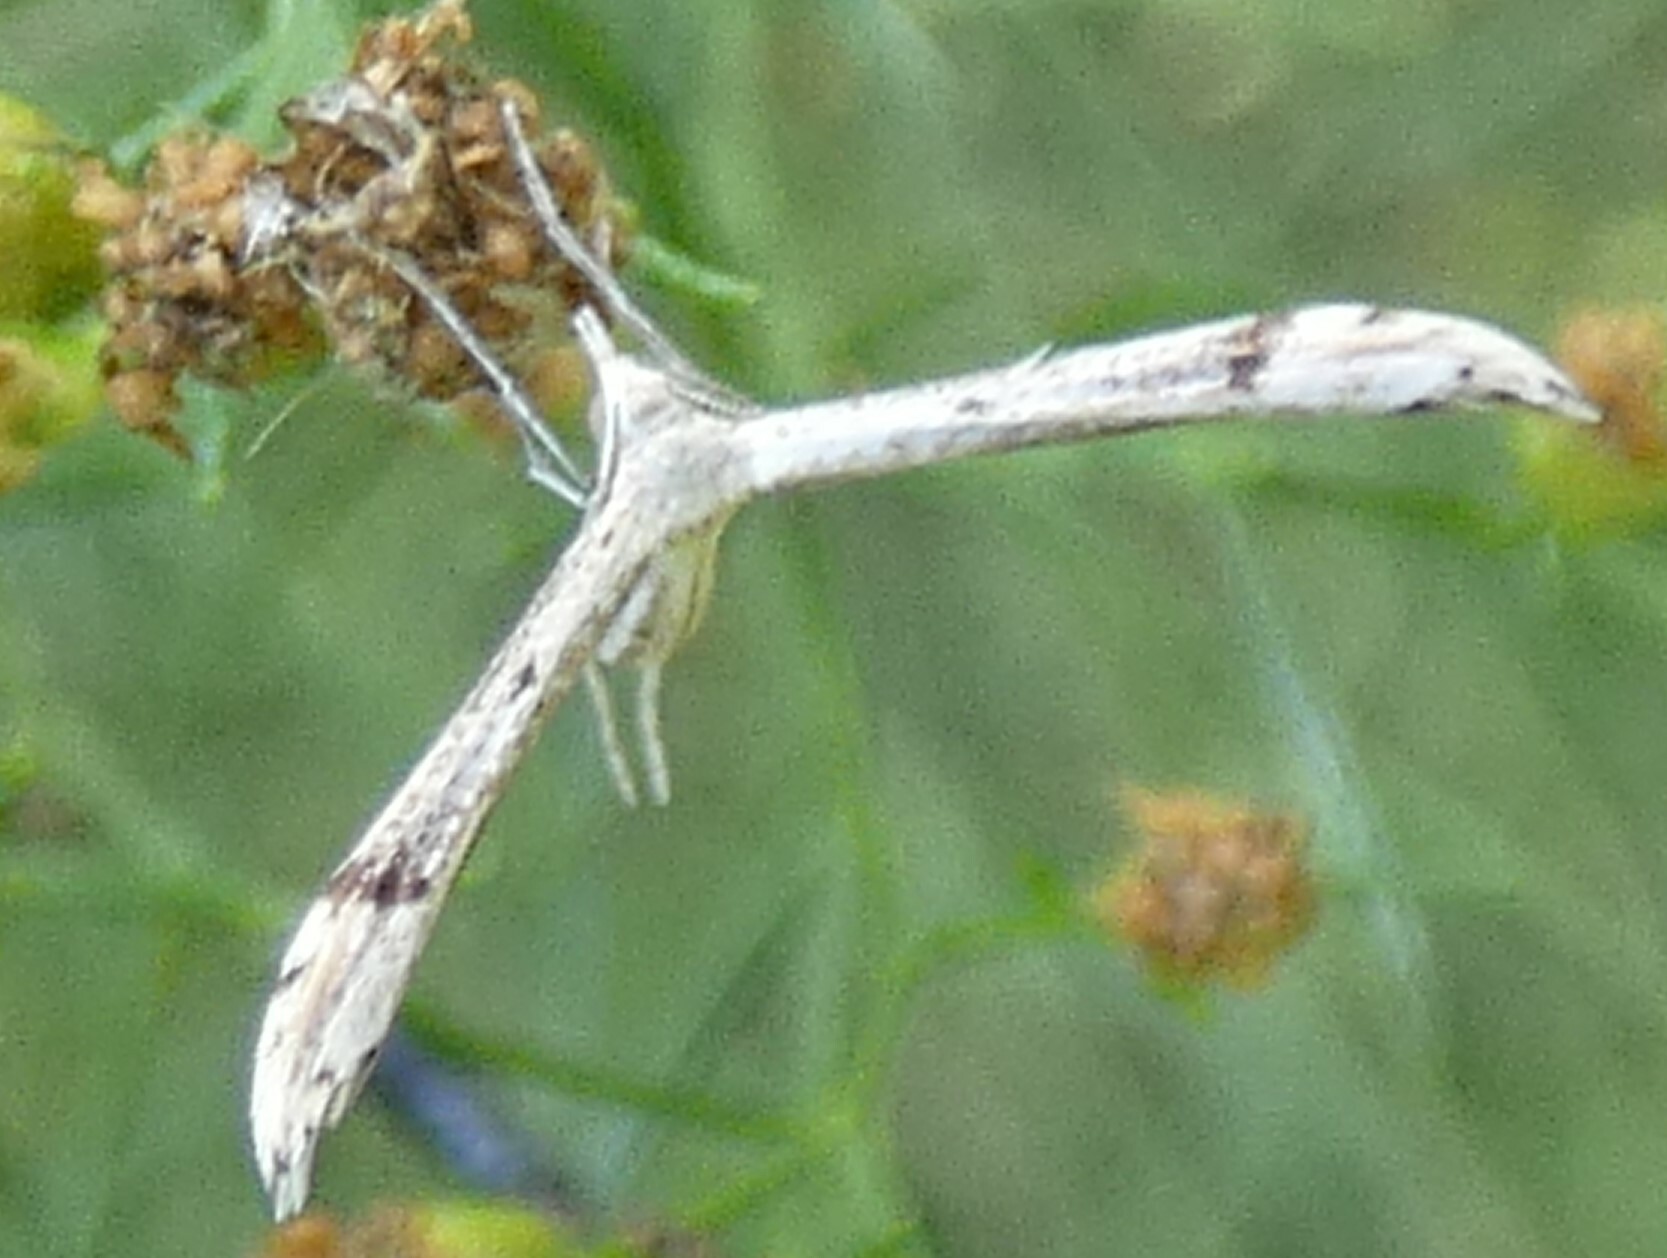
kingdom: Animalia
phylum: Arthropoda
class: Insecta
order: Lepidoptera
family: Pterophoridae
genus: Lioptilodes
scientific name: Lioptilodes albistriolatus
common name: Moth
